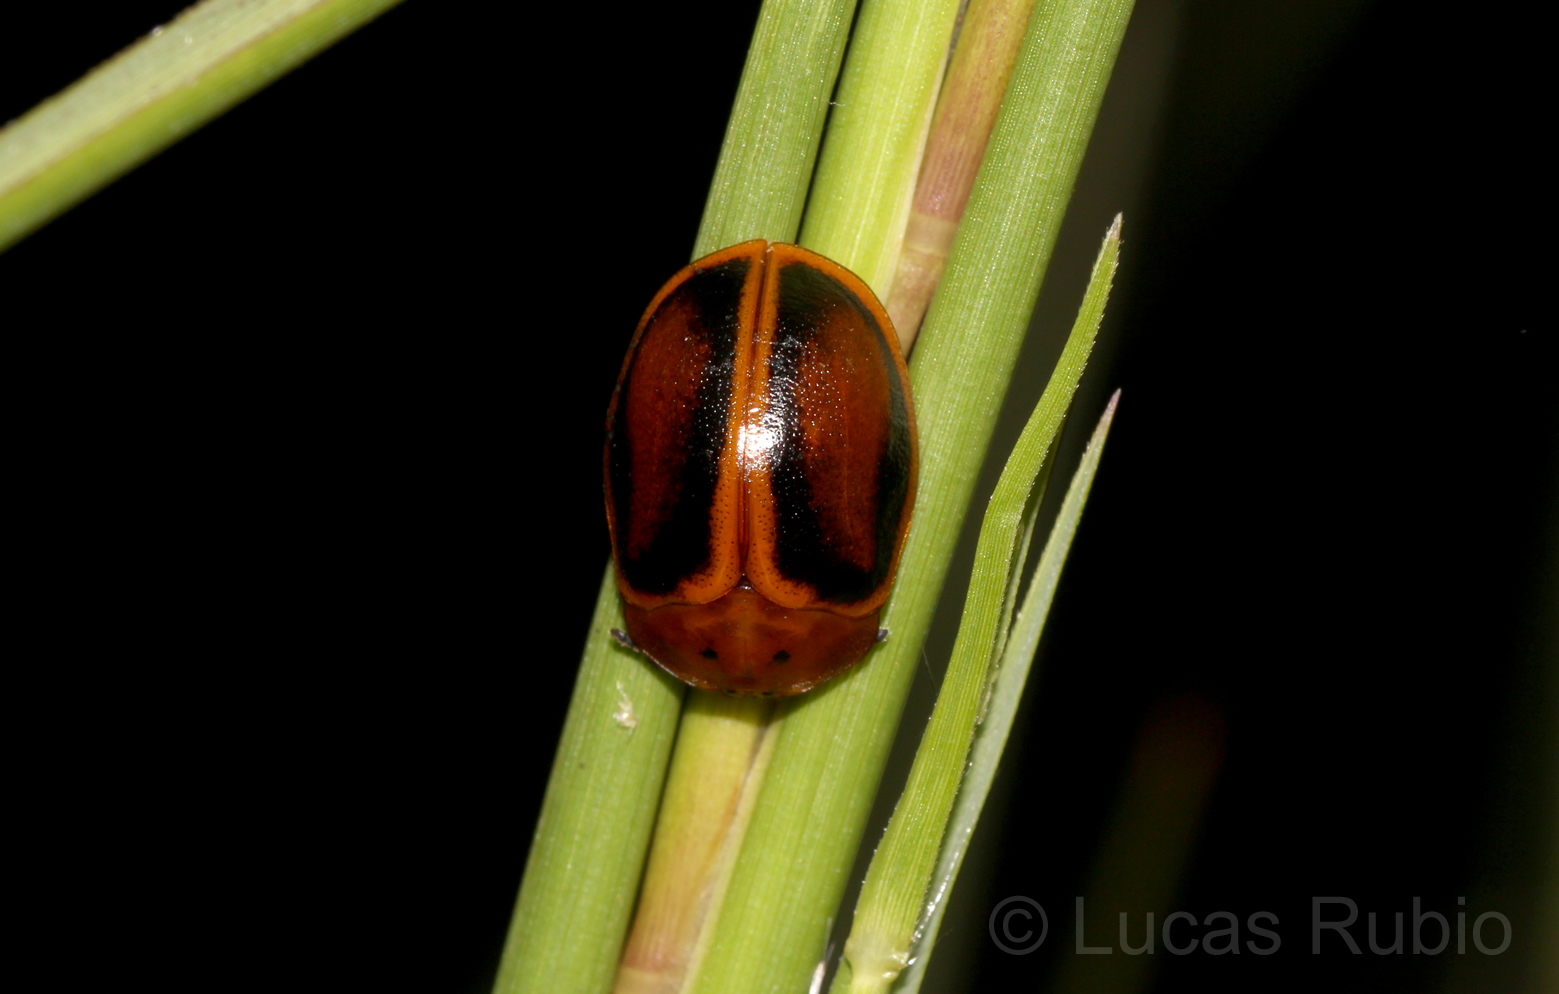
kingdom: Animalia
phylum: Arthropoda
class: Insecta
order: Coleoptera
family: Chrysomelidae
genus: Chelymorpha
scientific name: Chelymorpha cribraria
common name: Tortoise beetle
